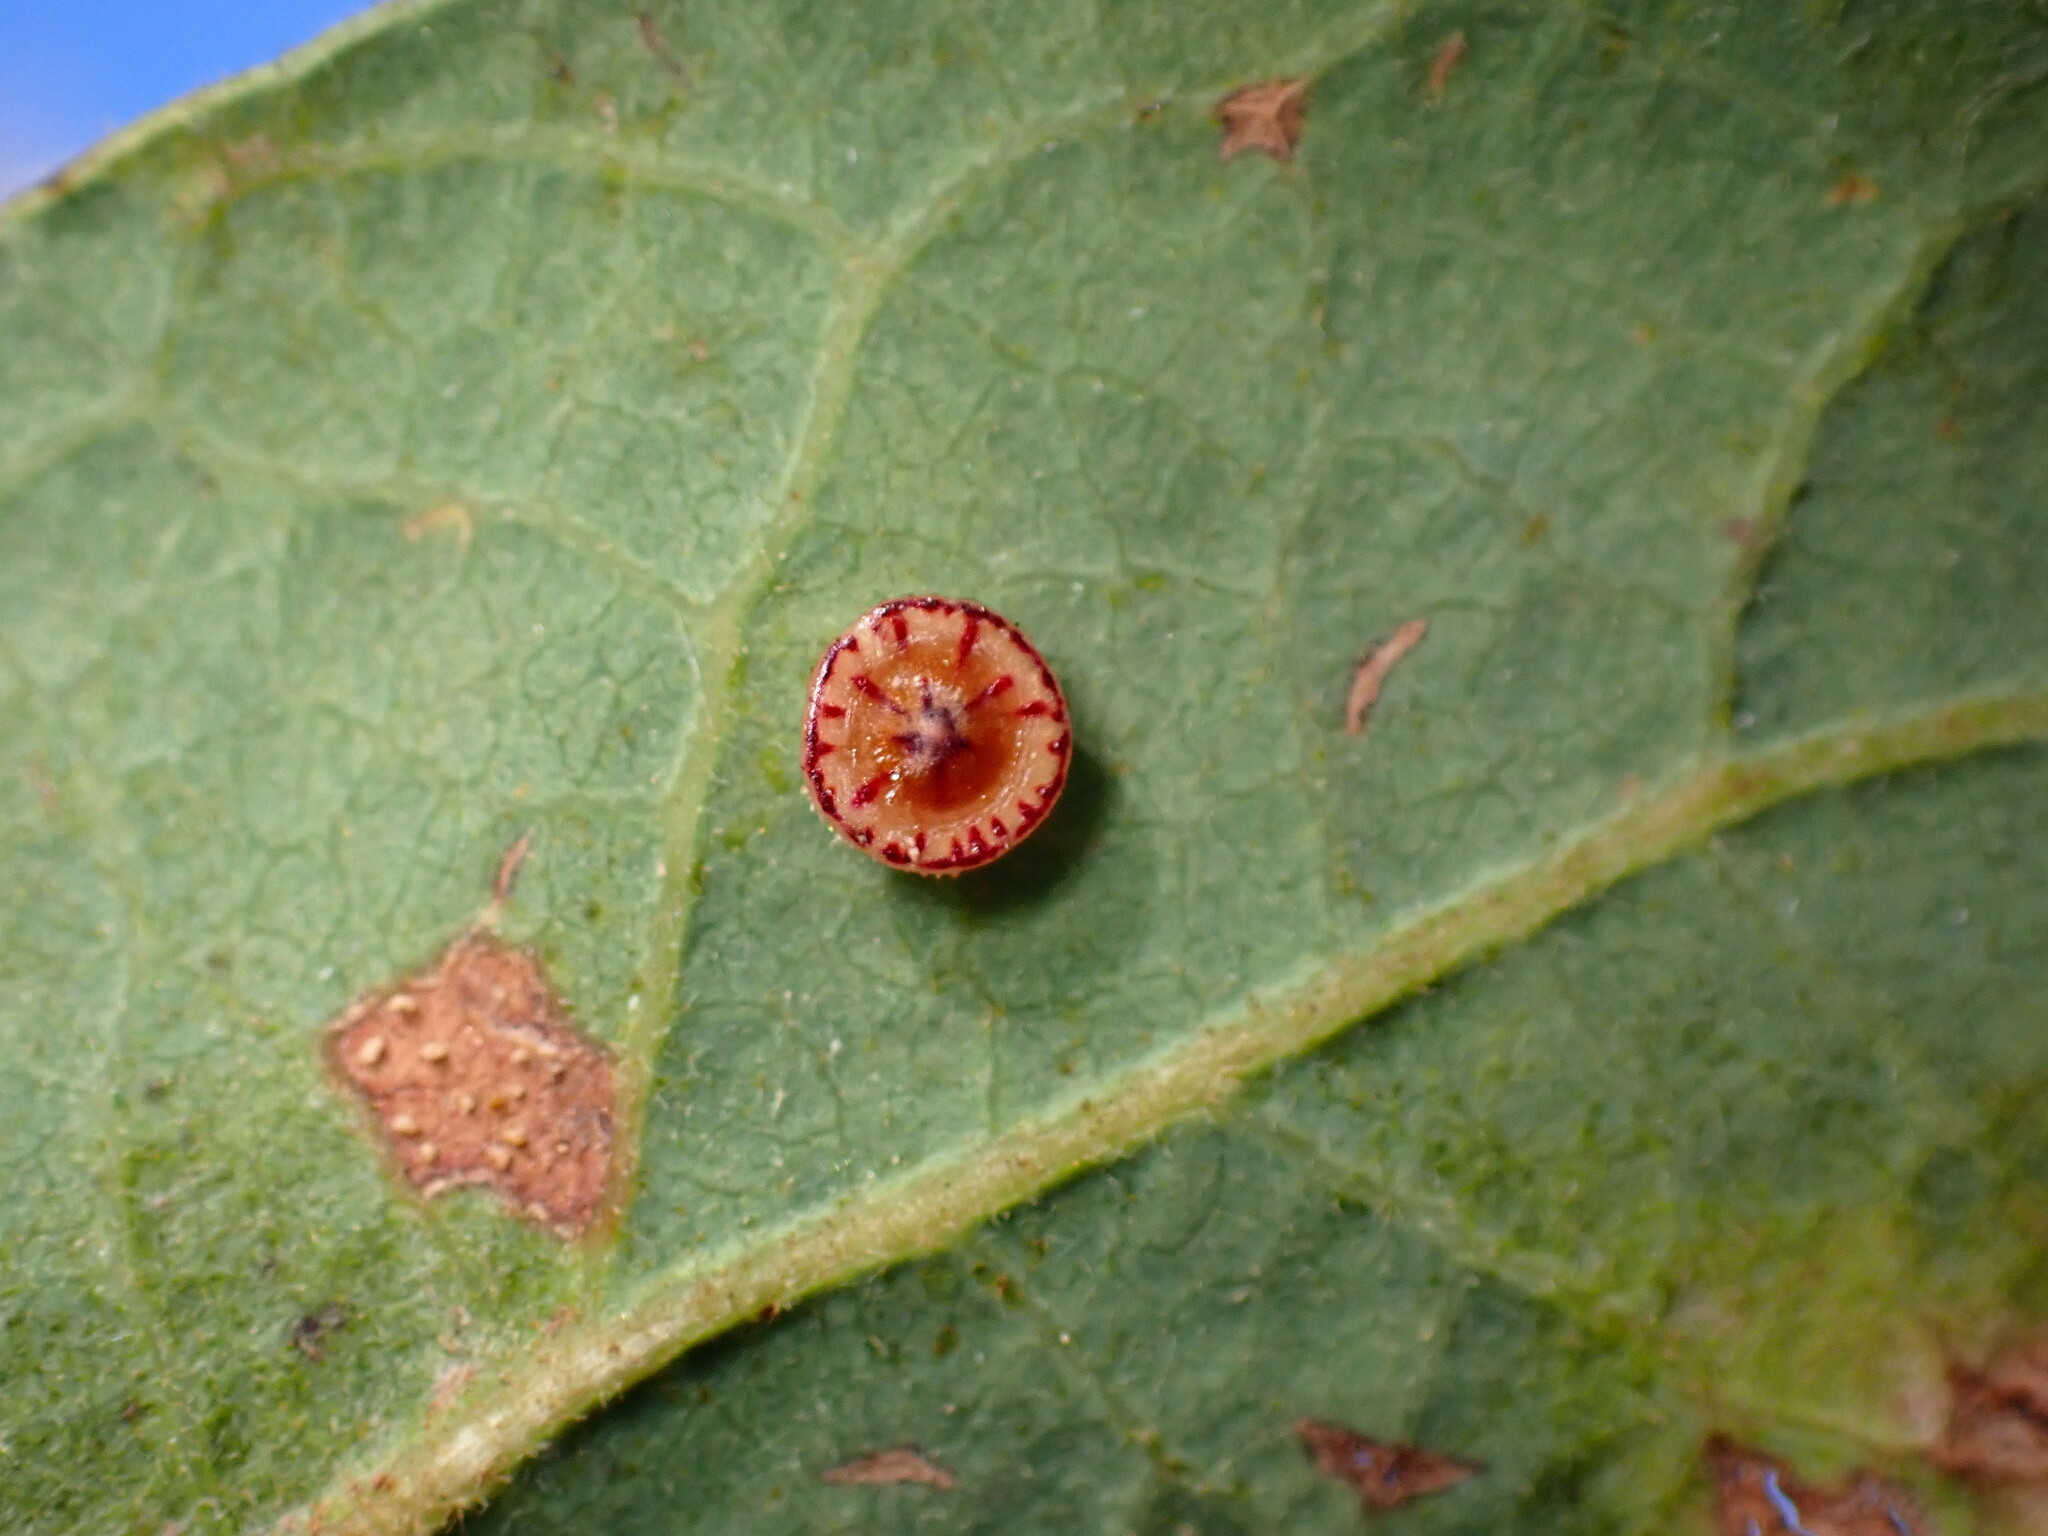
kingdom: Animalia
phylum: Arthropoda
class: Insecta
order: Hymenoptera
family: Cynipidae
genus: Andricus
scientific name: Andricus
